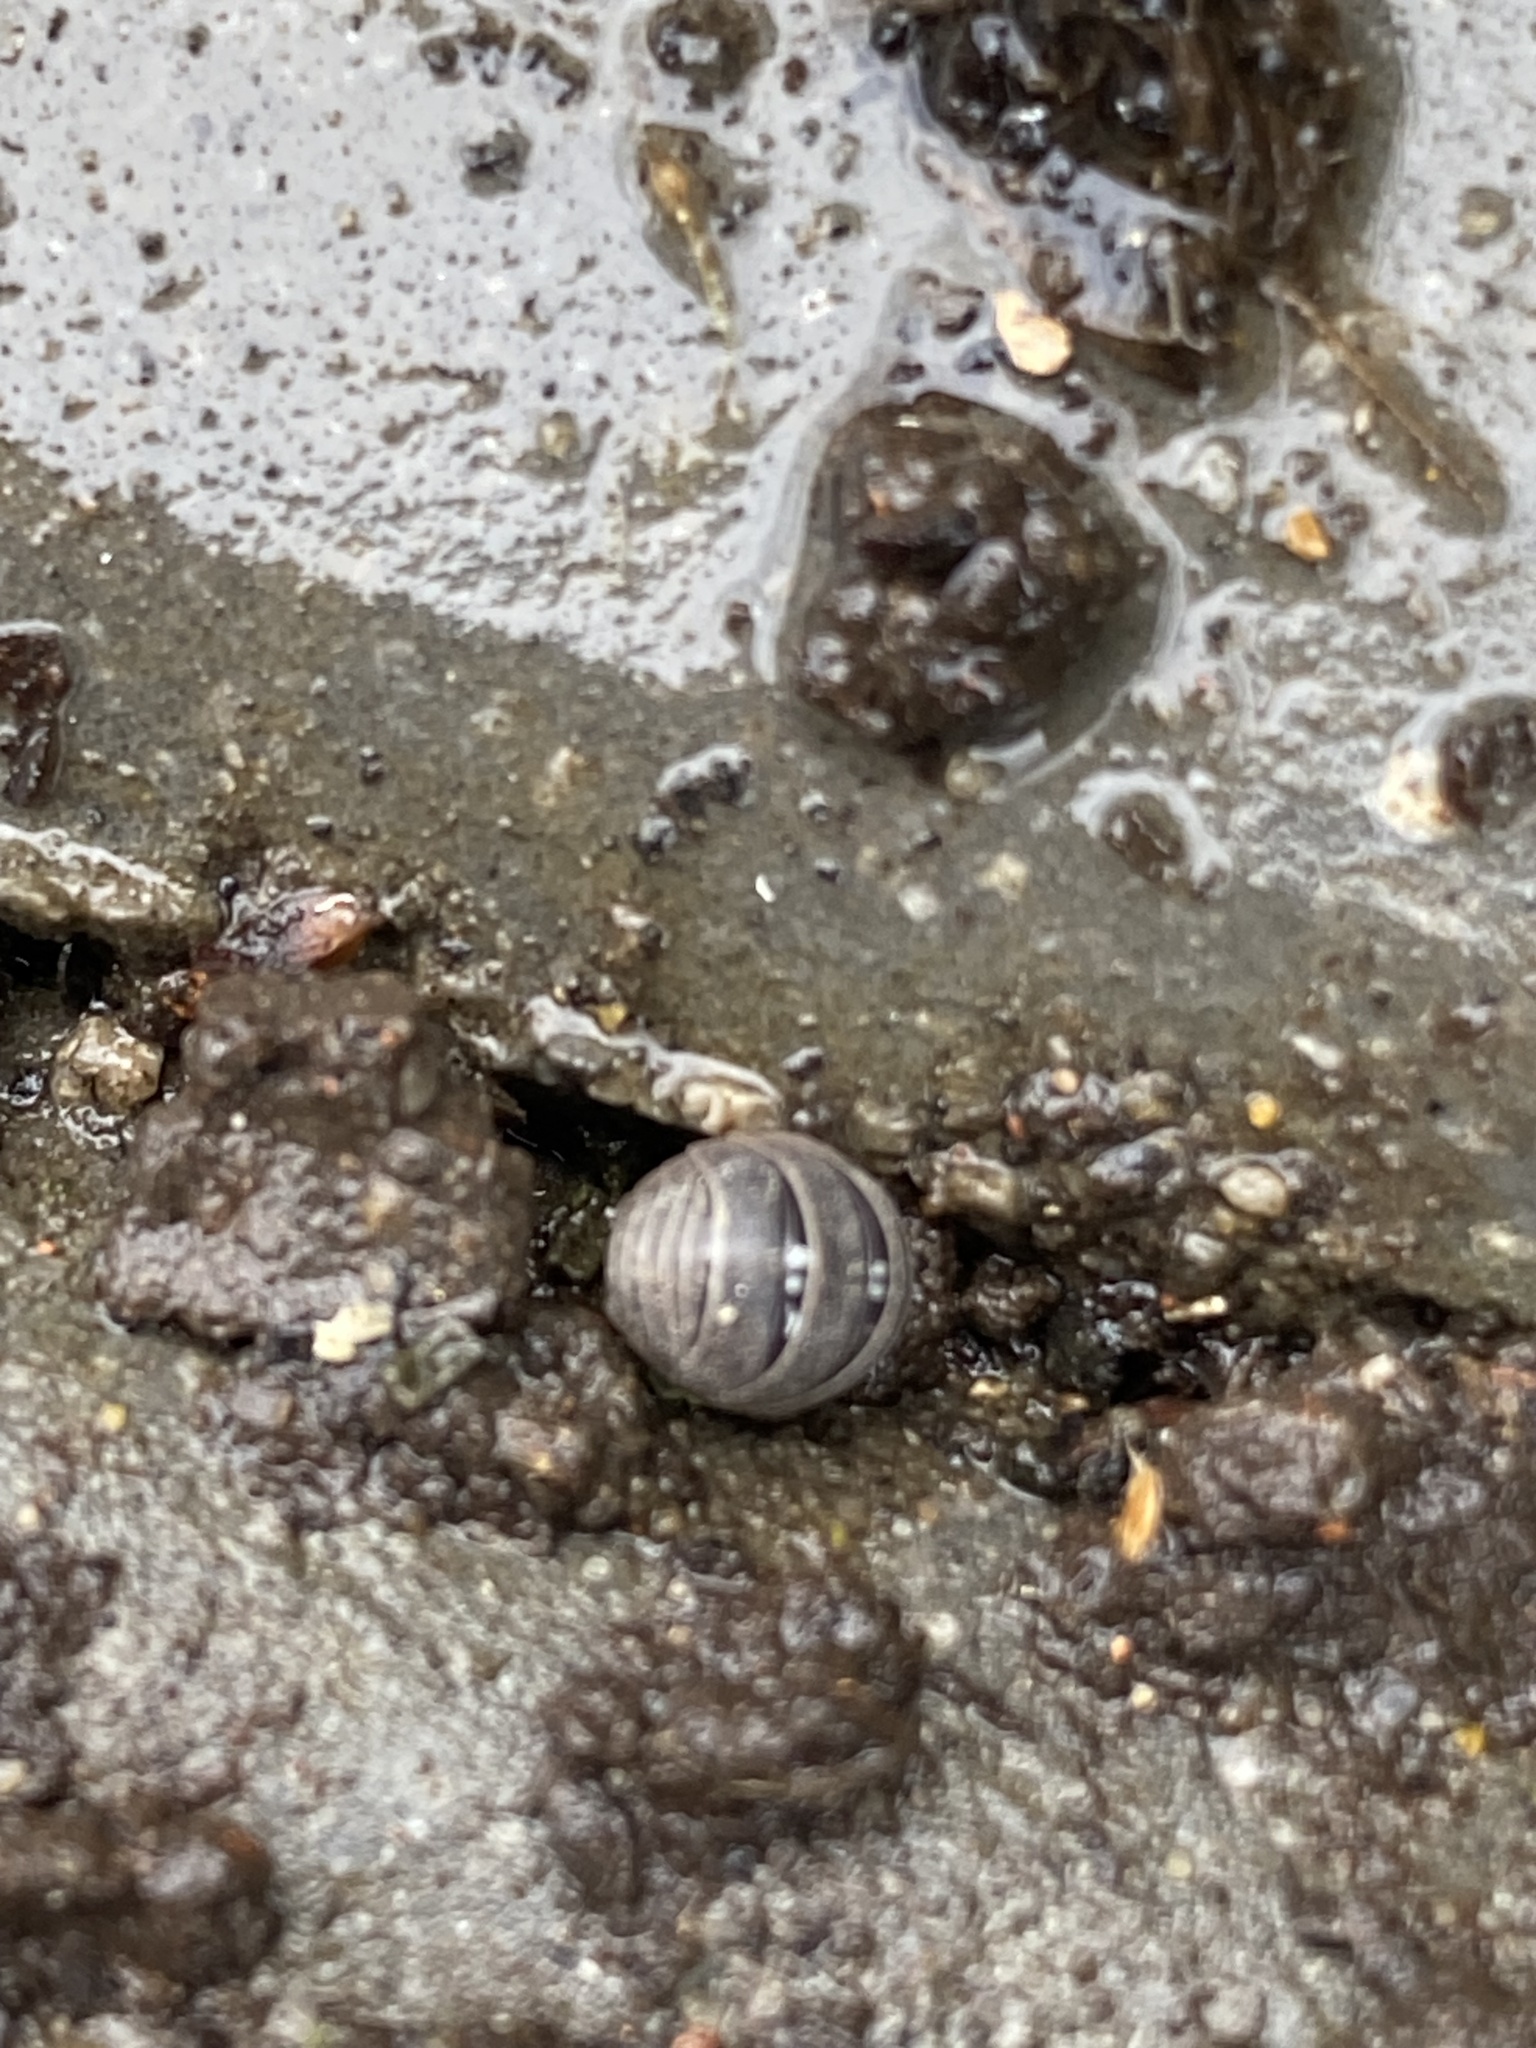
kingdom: Animalia
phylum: Arthropoda
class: Malacostraca
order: Isopoda
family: Armadillidiidae
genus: Armadillidium
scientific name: Armadillidium vulgare
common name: Common pill woodlouse
